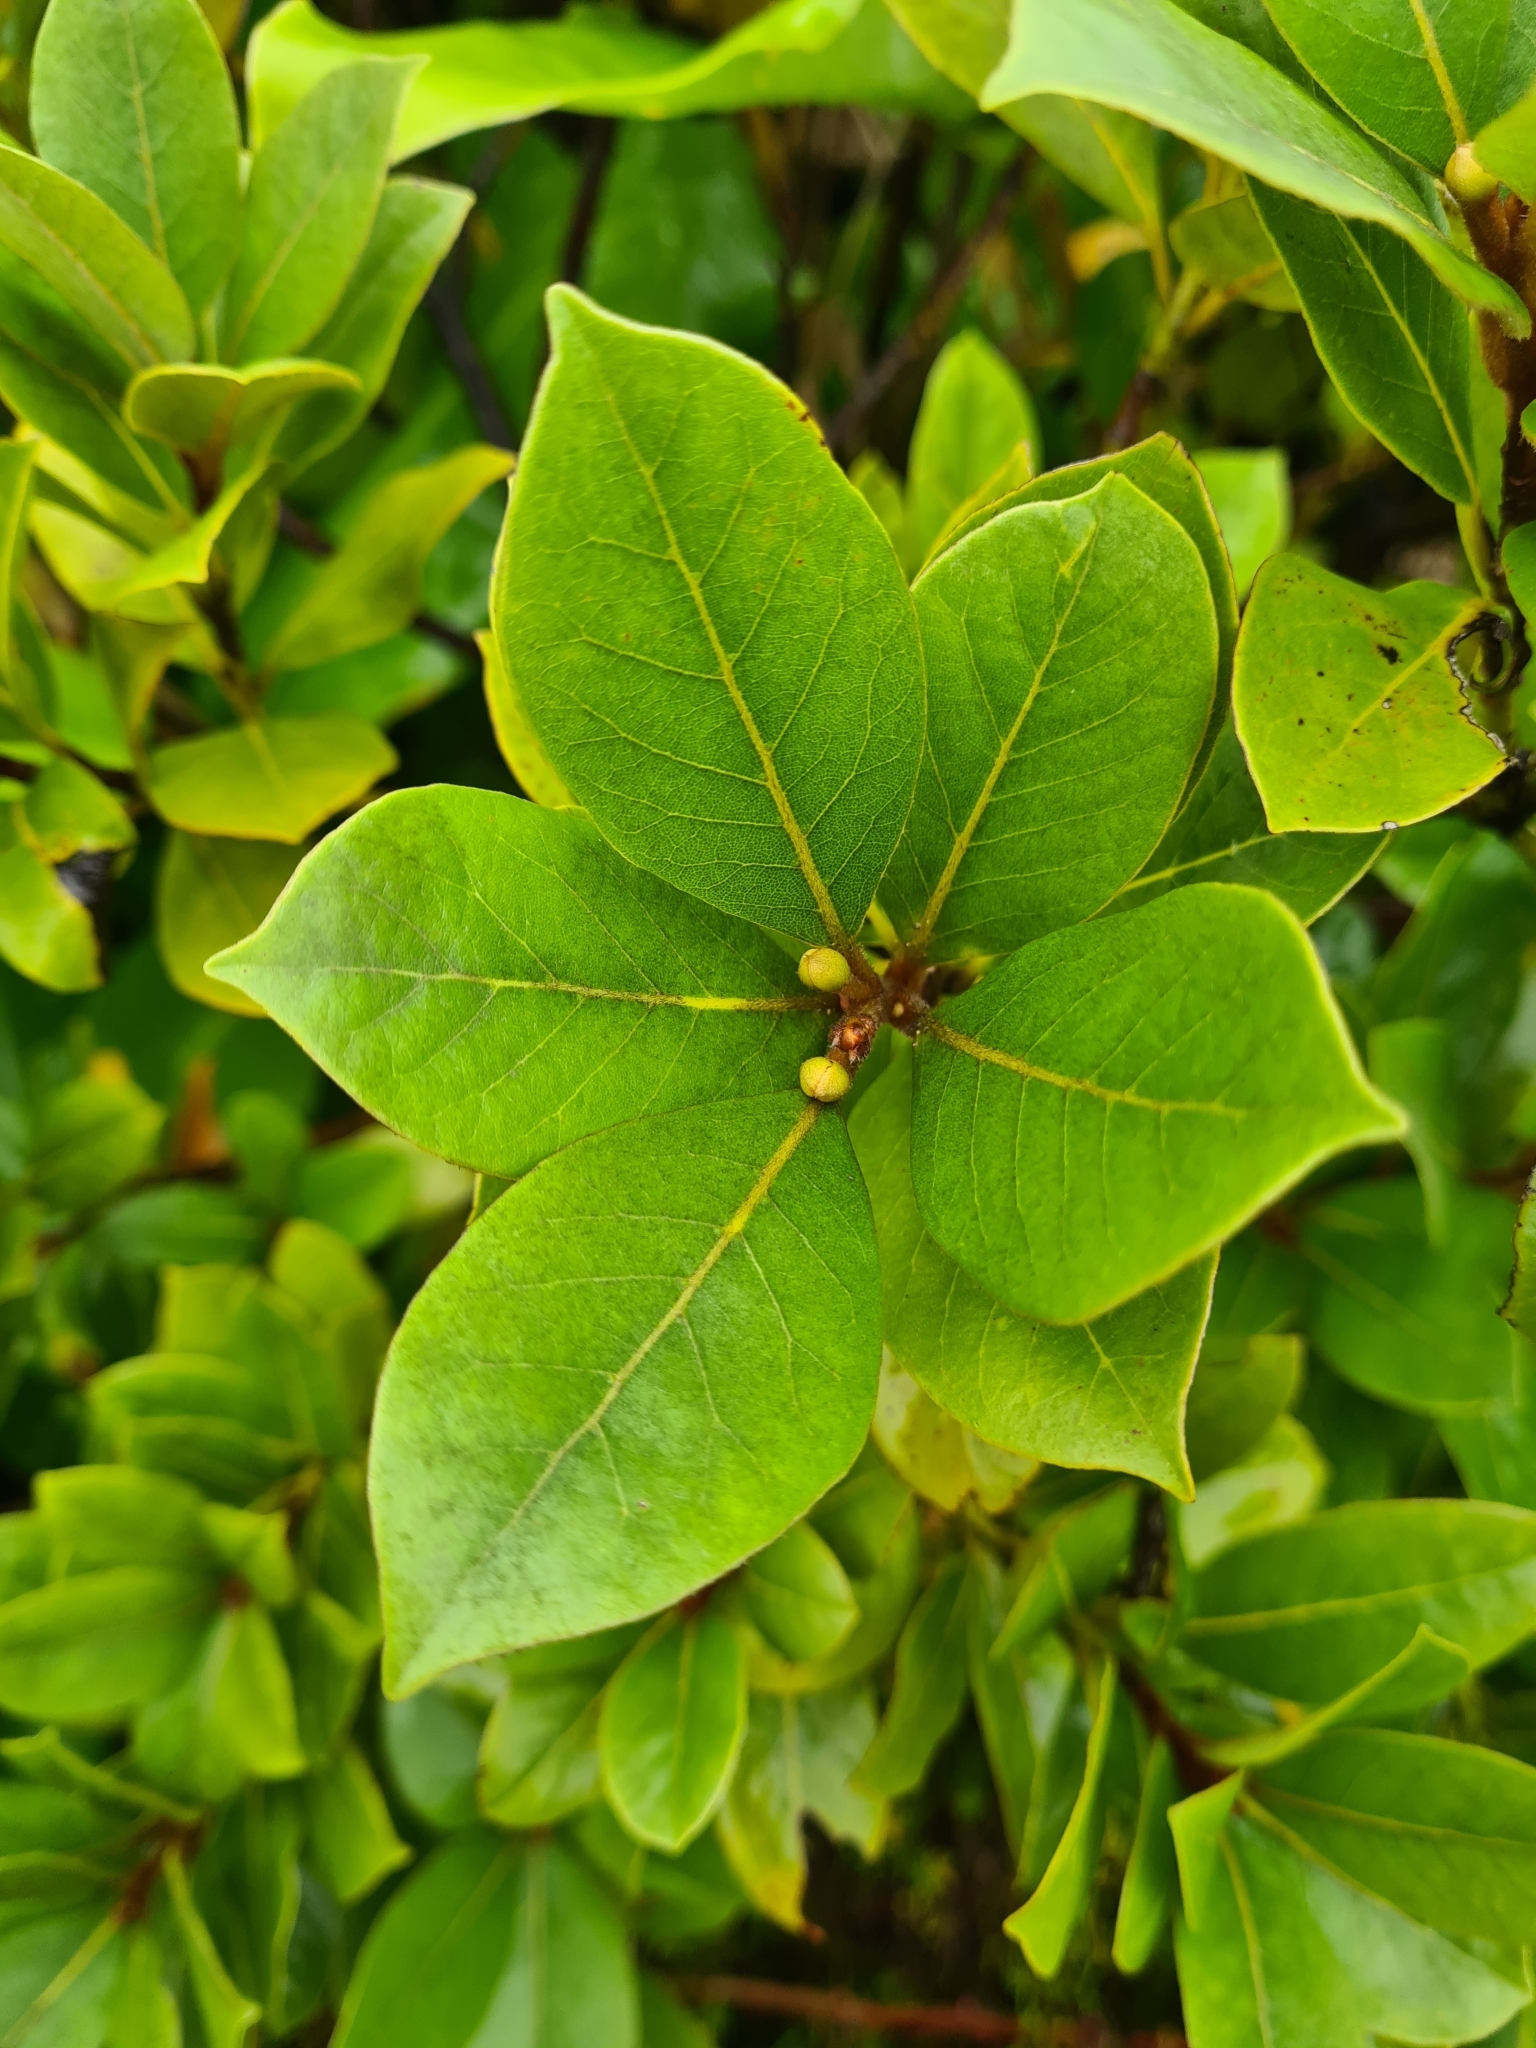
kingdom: Plantae
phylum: Tracheophyta
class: Magnoliopsida
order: Laurales
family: Lauraceae
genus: Laurus
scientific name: Laurus azorica
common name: Macaronesian laurel
